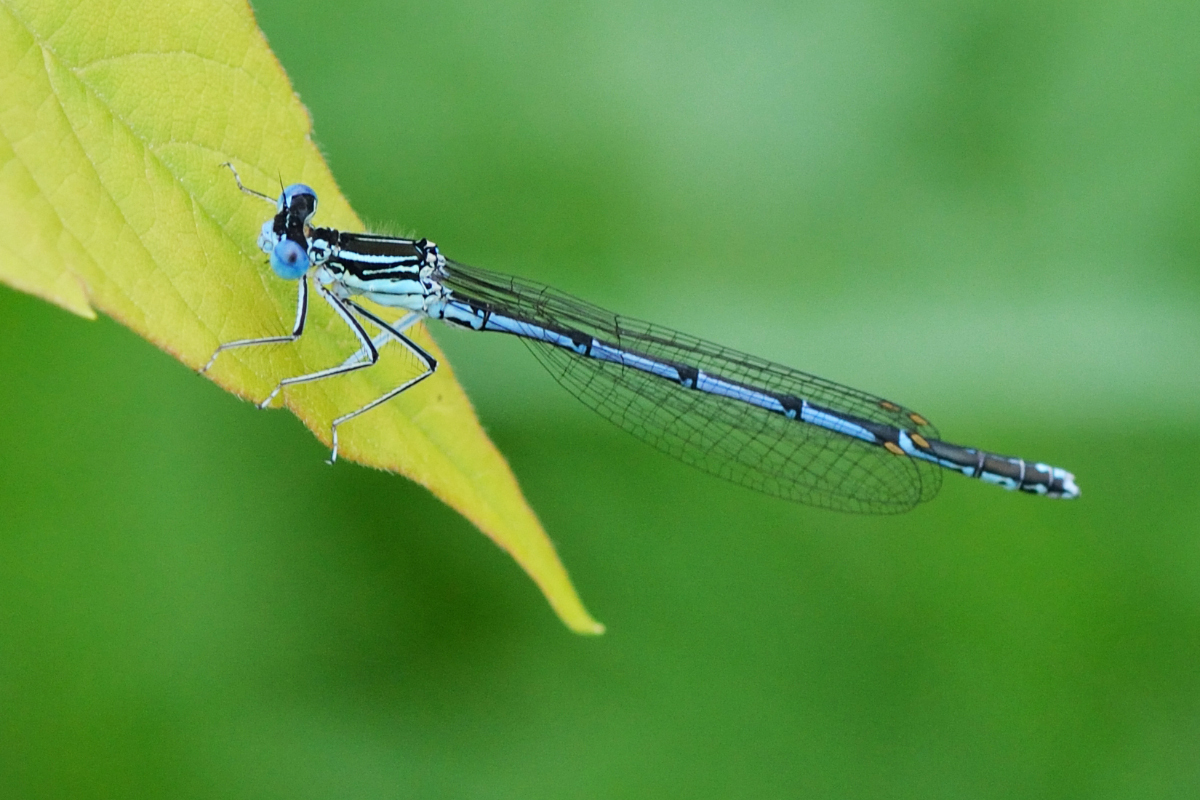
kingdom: Animalia
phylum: Arthropoda
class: Insecta
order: Odonata
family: Platycnemididae
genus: Platycnemis
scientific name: Platycnemis pennipes
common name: White-legged damselfly
